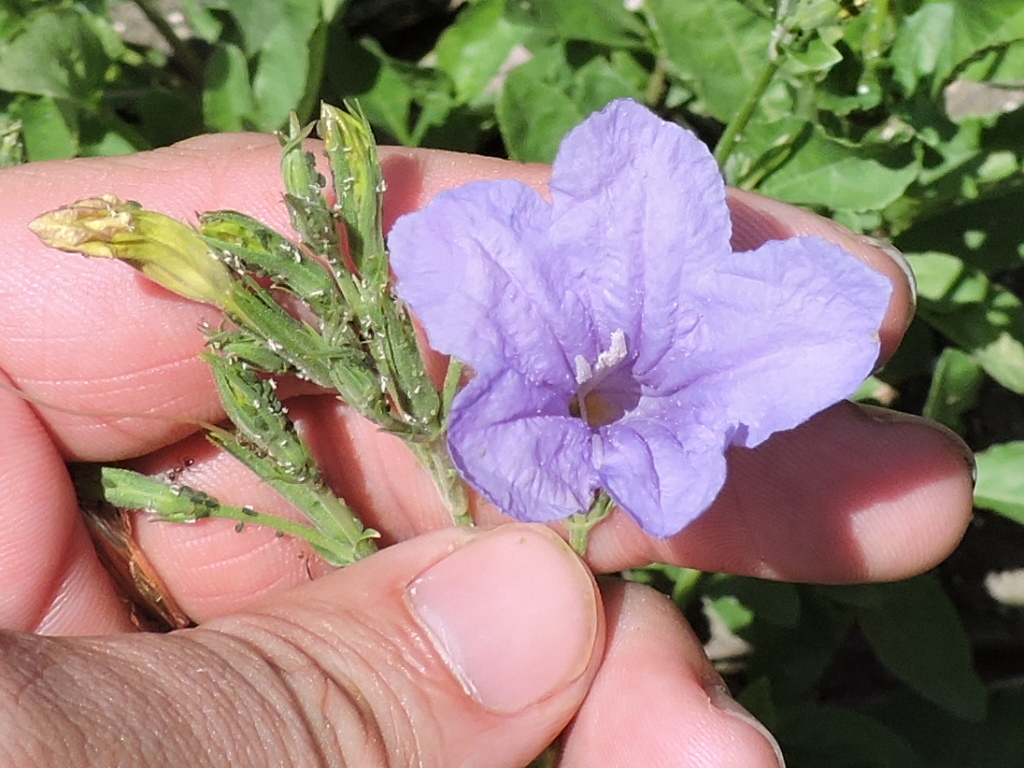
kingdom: Plantae
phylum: Tracheophyta
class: Magnoliopsida
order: Lamiales
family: Acanthaceae
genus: Ruellia
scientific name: Ruellia ciliatiflora
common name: Hairyflower wild petunia
